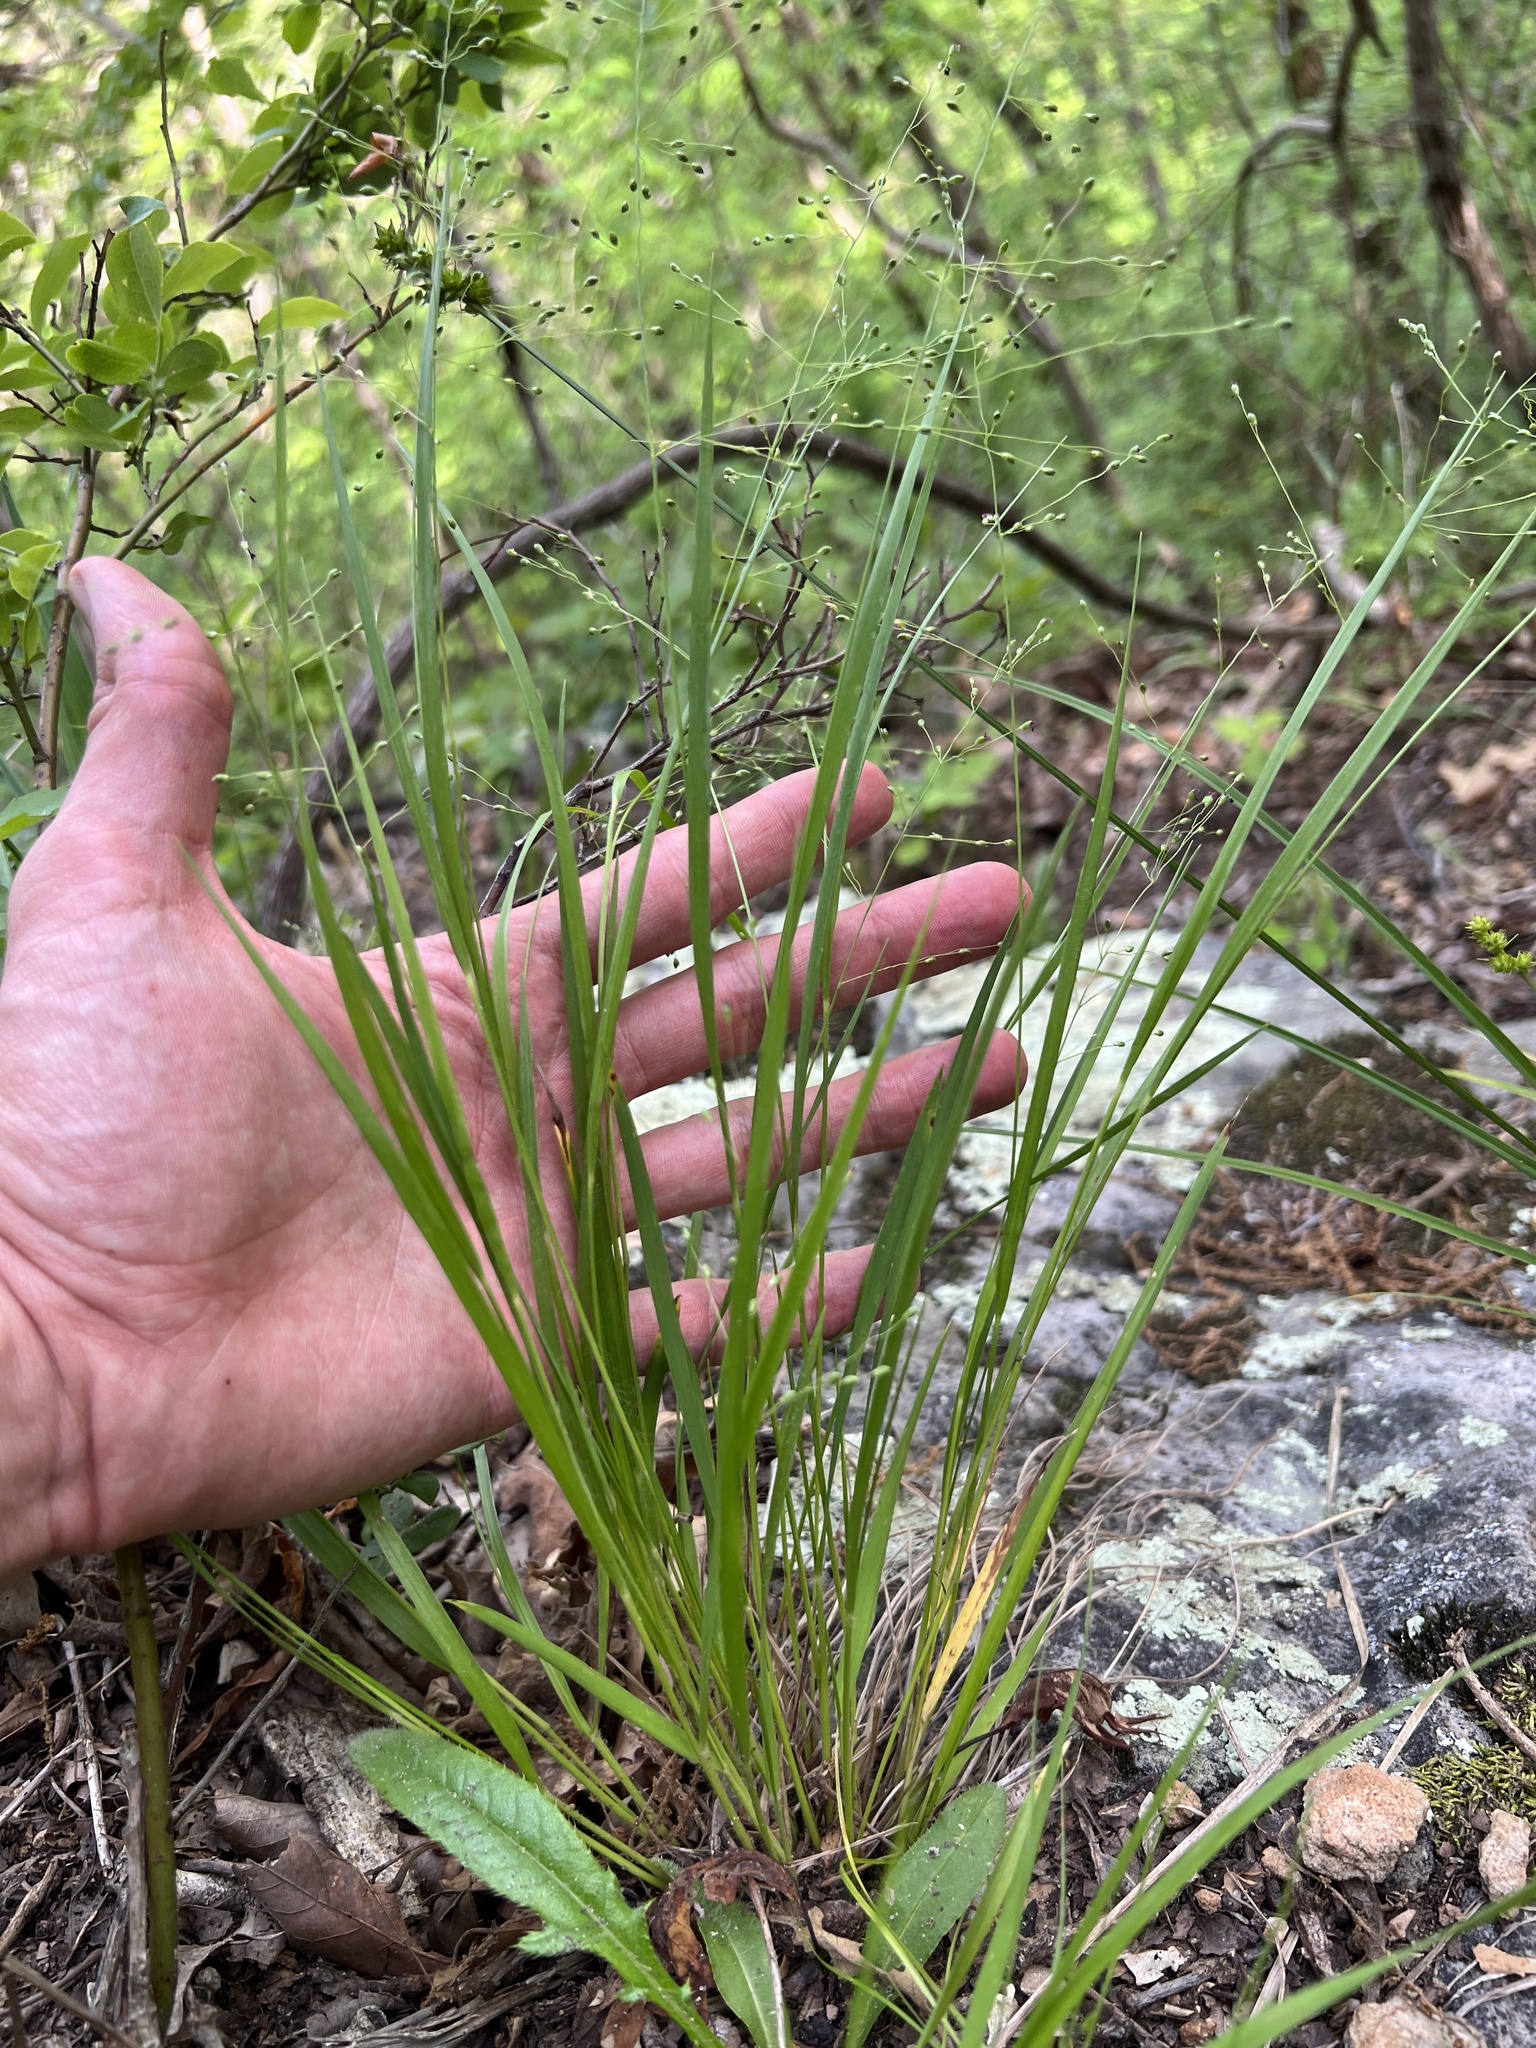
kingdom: Plantae
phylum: Tracheophyta
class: Liliopsida
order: Poales
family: Poaceae
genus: Dichanthelium
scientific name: Dichanthelium linearifolium
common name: Linear-leaved panicgrass
